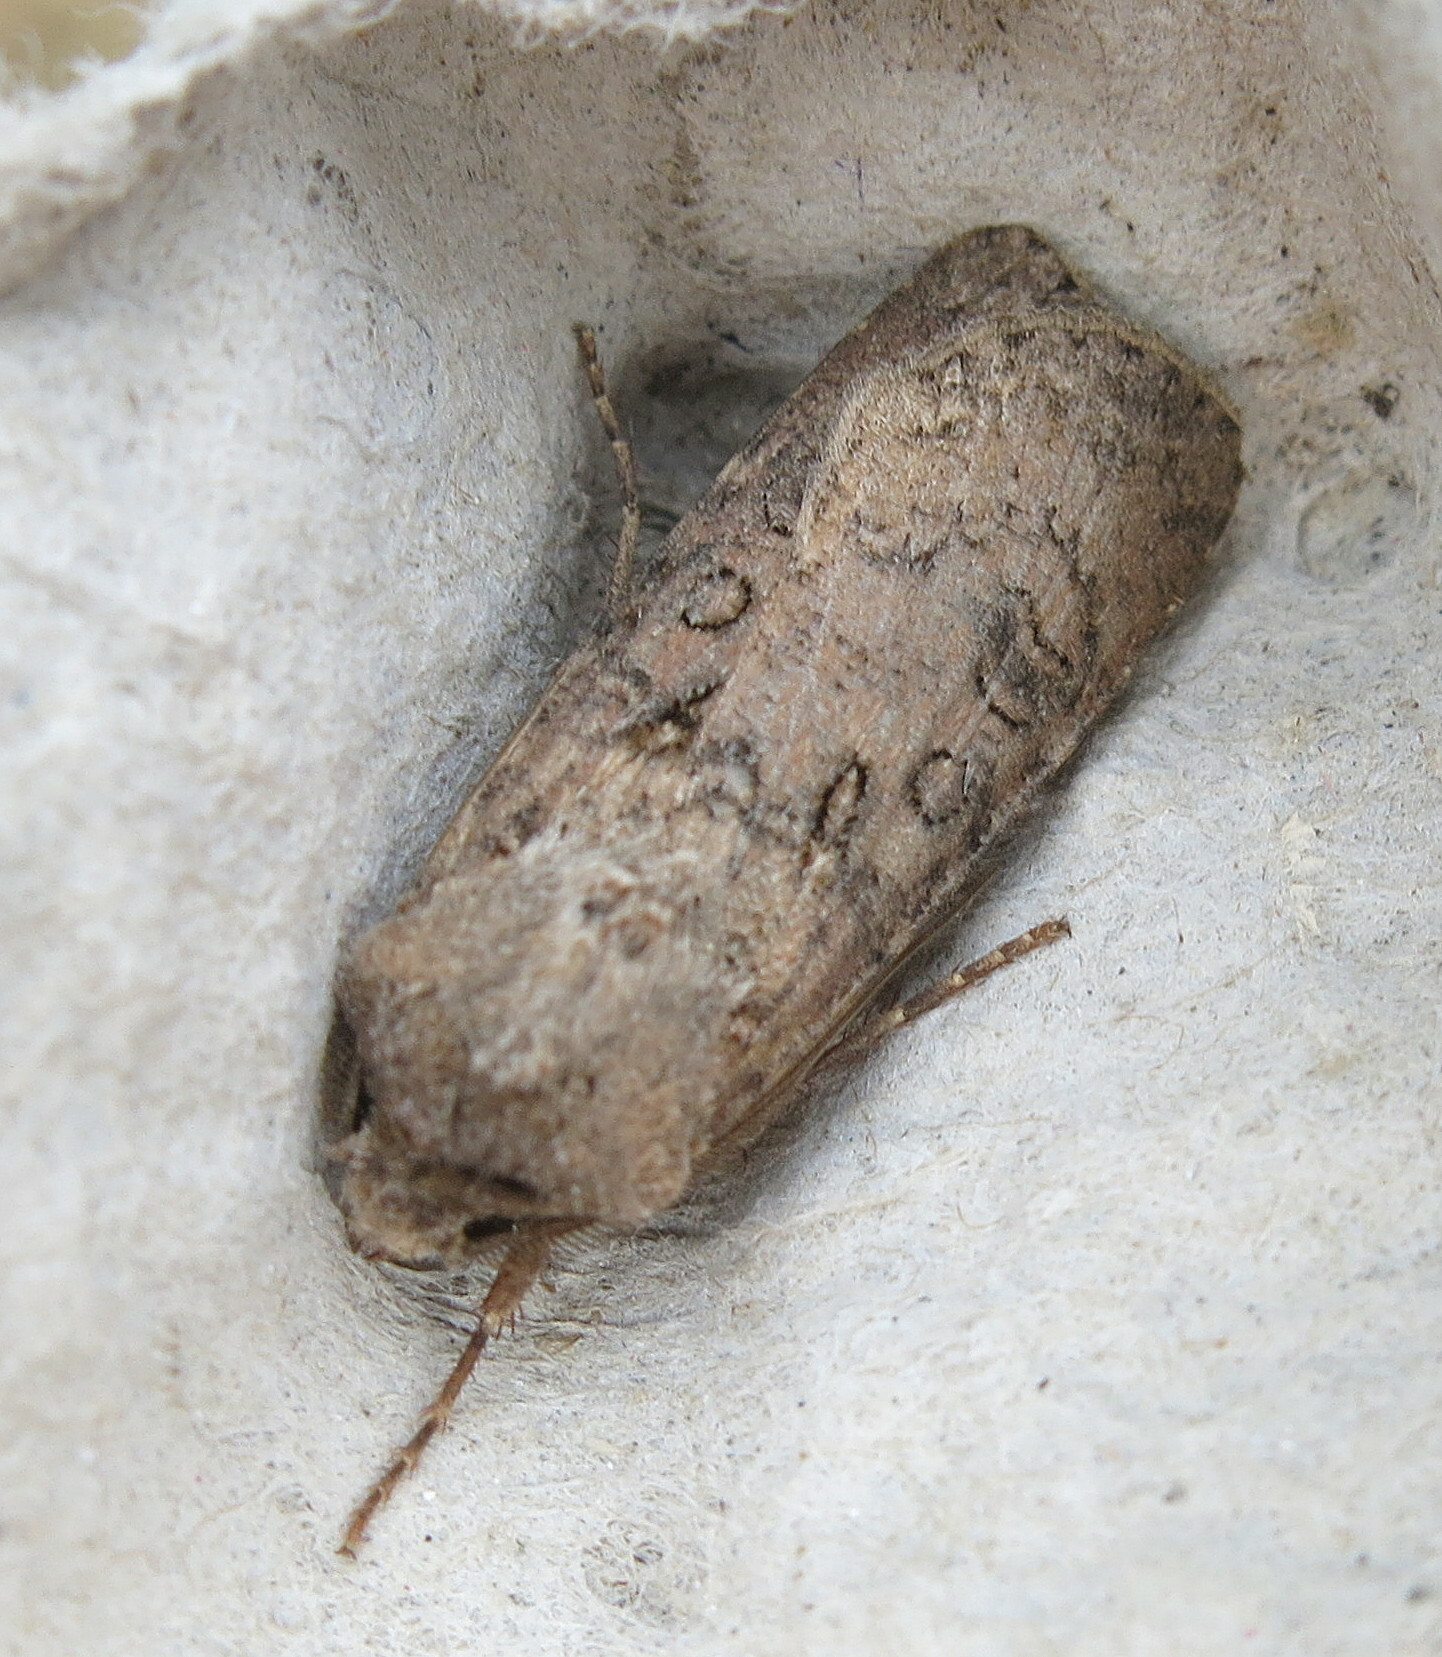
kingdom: Animalia
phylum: Arthropoda
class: Insecta
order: Lepidoptera
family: Noctuidae
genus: Agrotis
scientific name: Agrotis segetum
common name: Turnip moth
